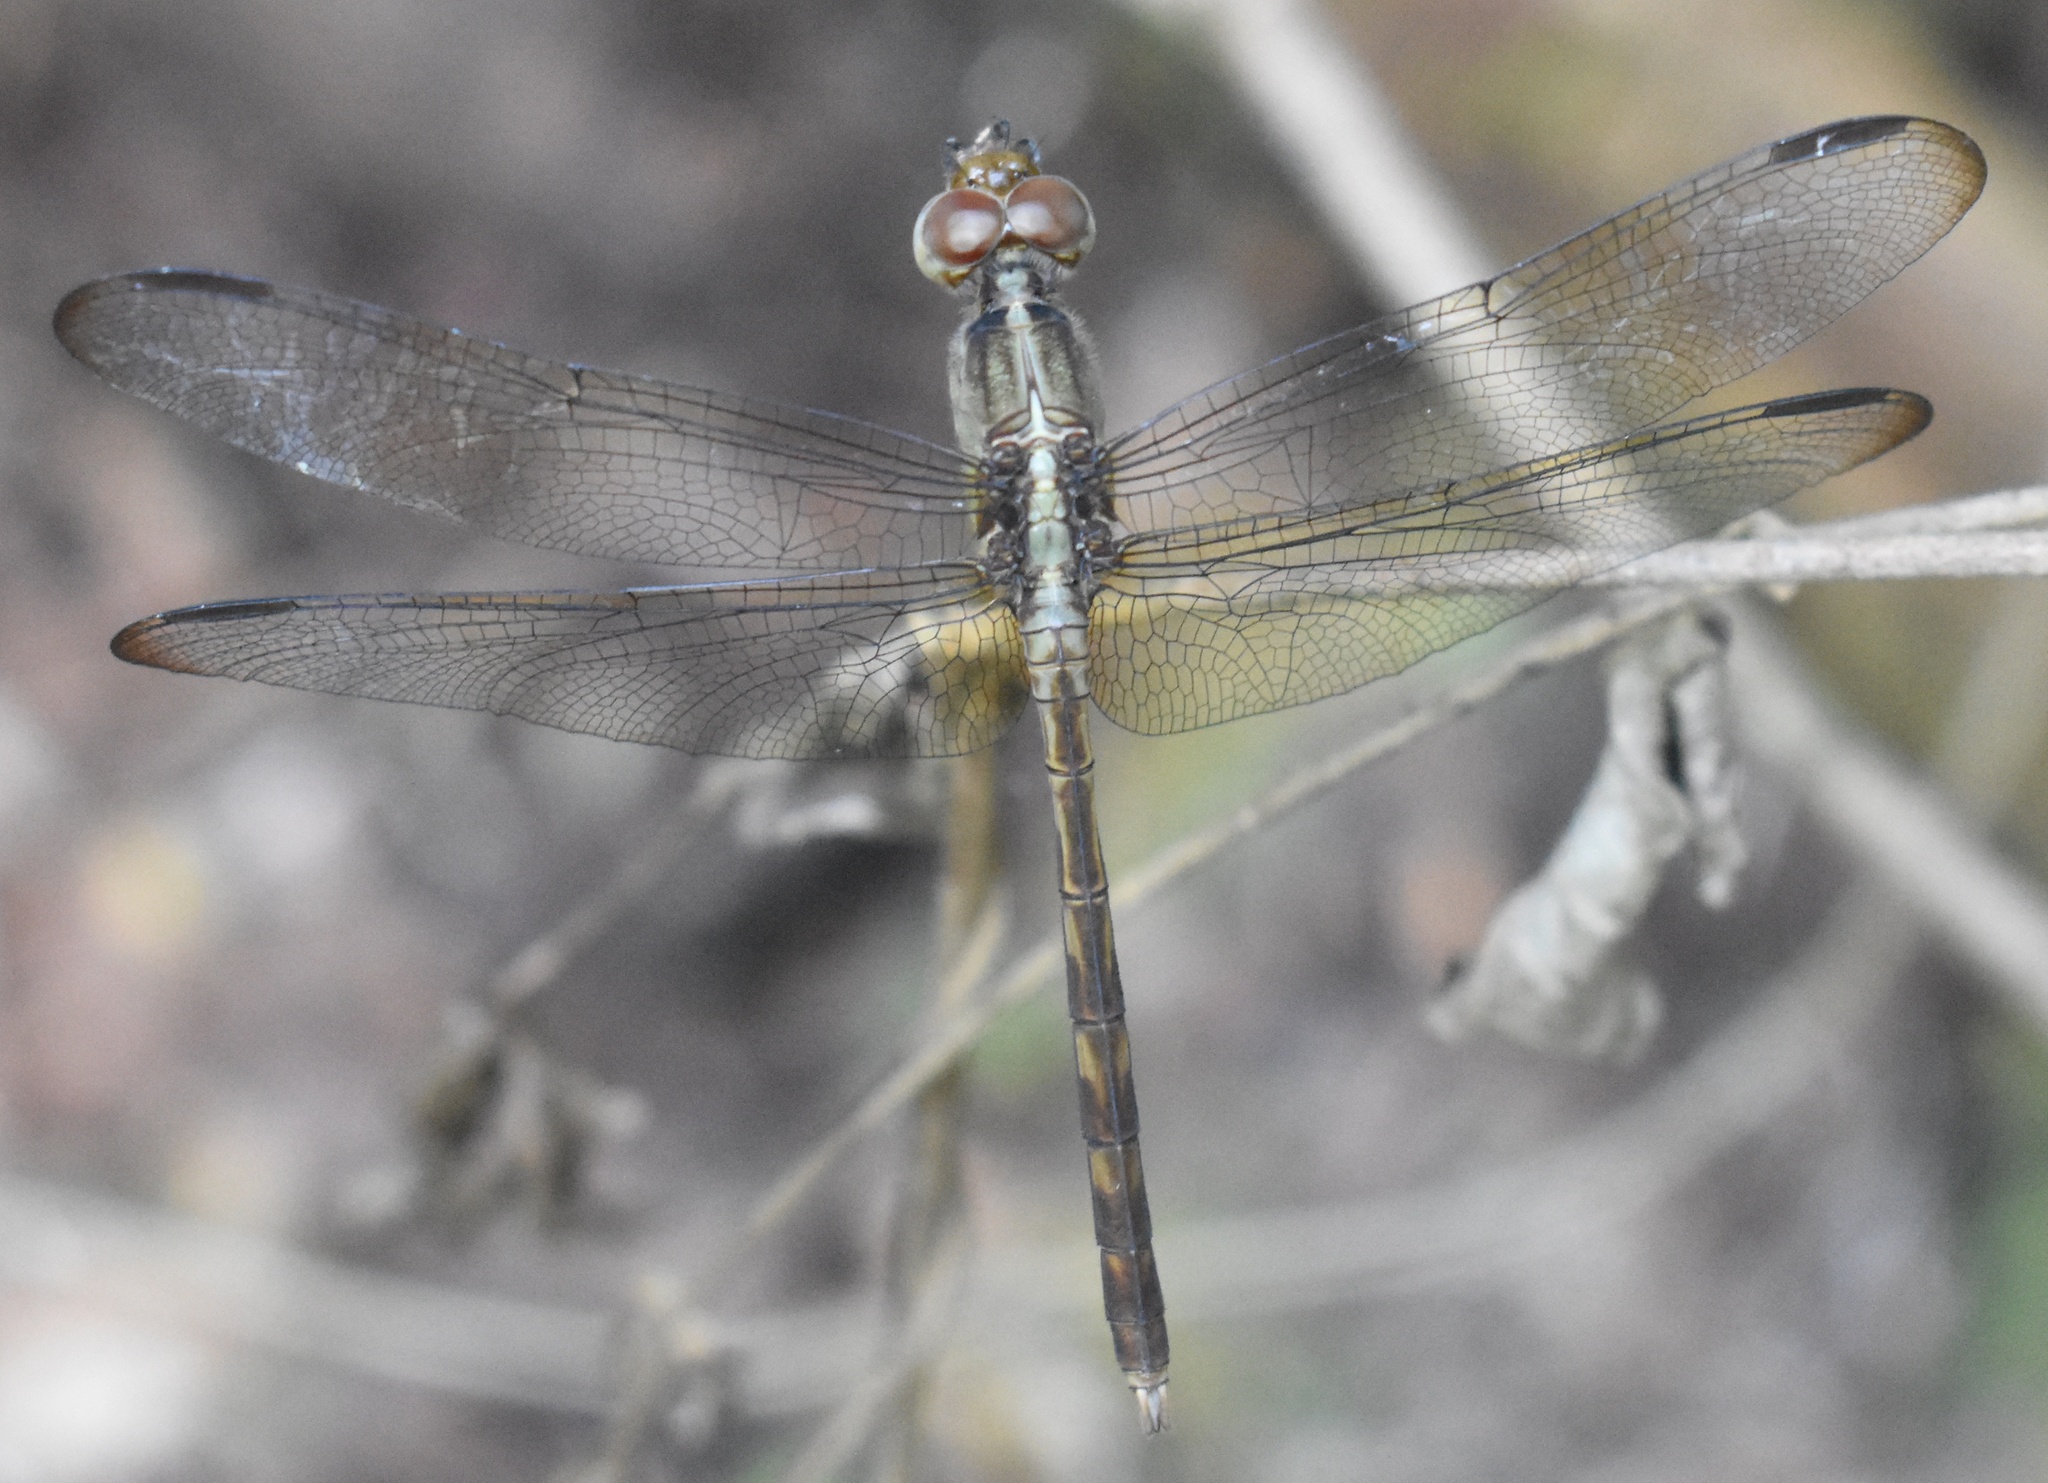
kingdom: Animalia
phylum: Arthropoda
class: Insecta
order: Odonata
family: Libellulidae
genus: Erythrodiplax
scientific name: Erythrodiplax funerea
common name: Black-winged dragonlet
